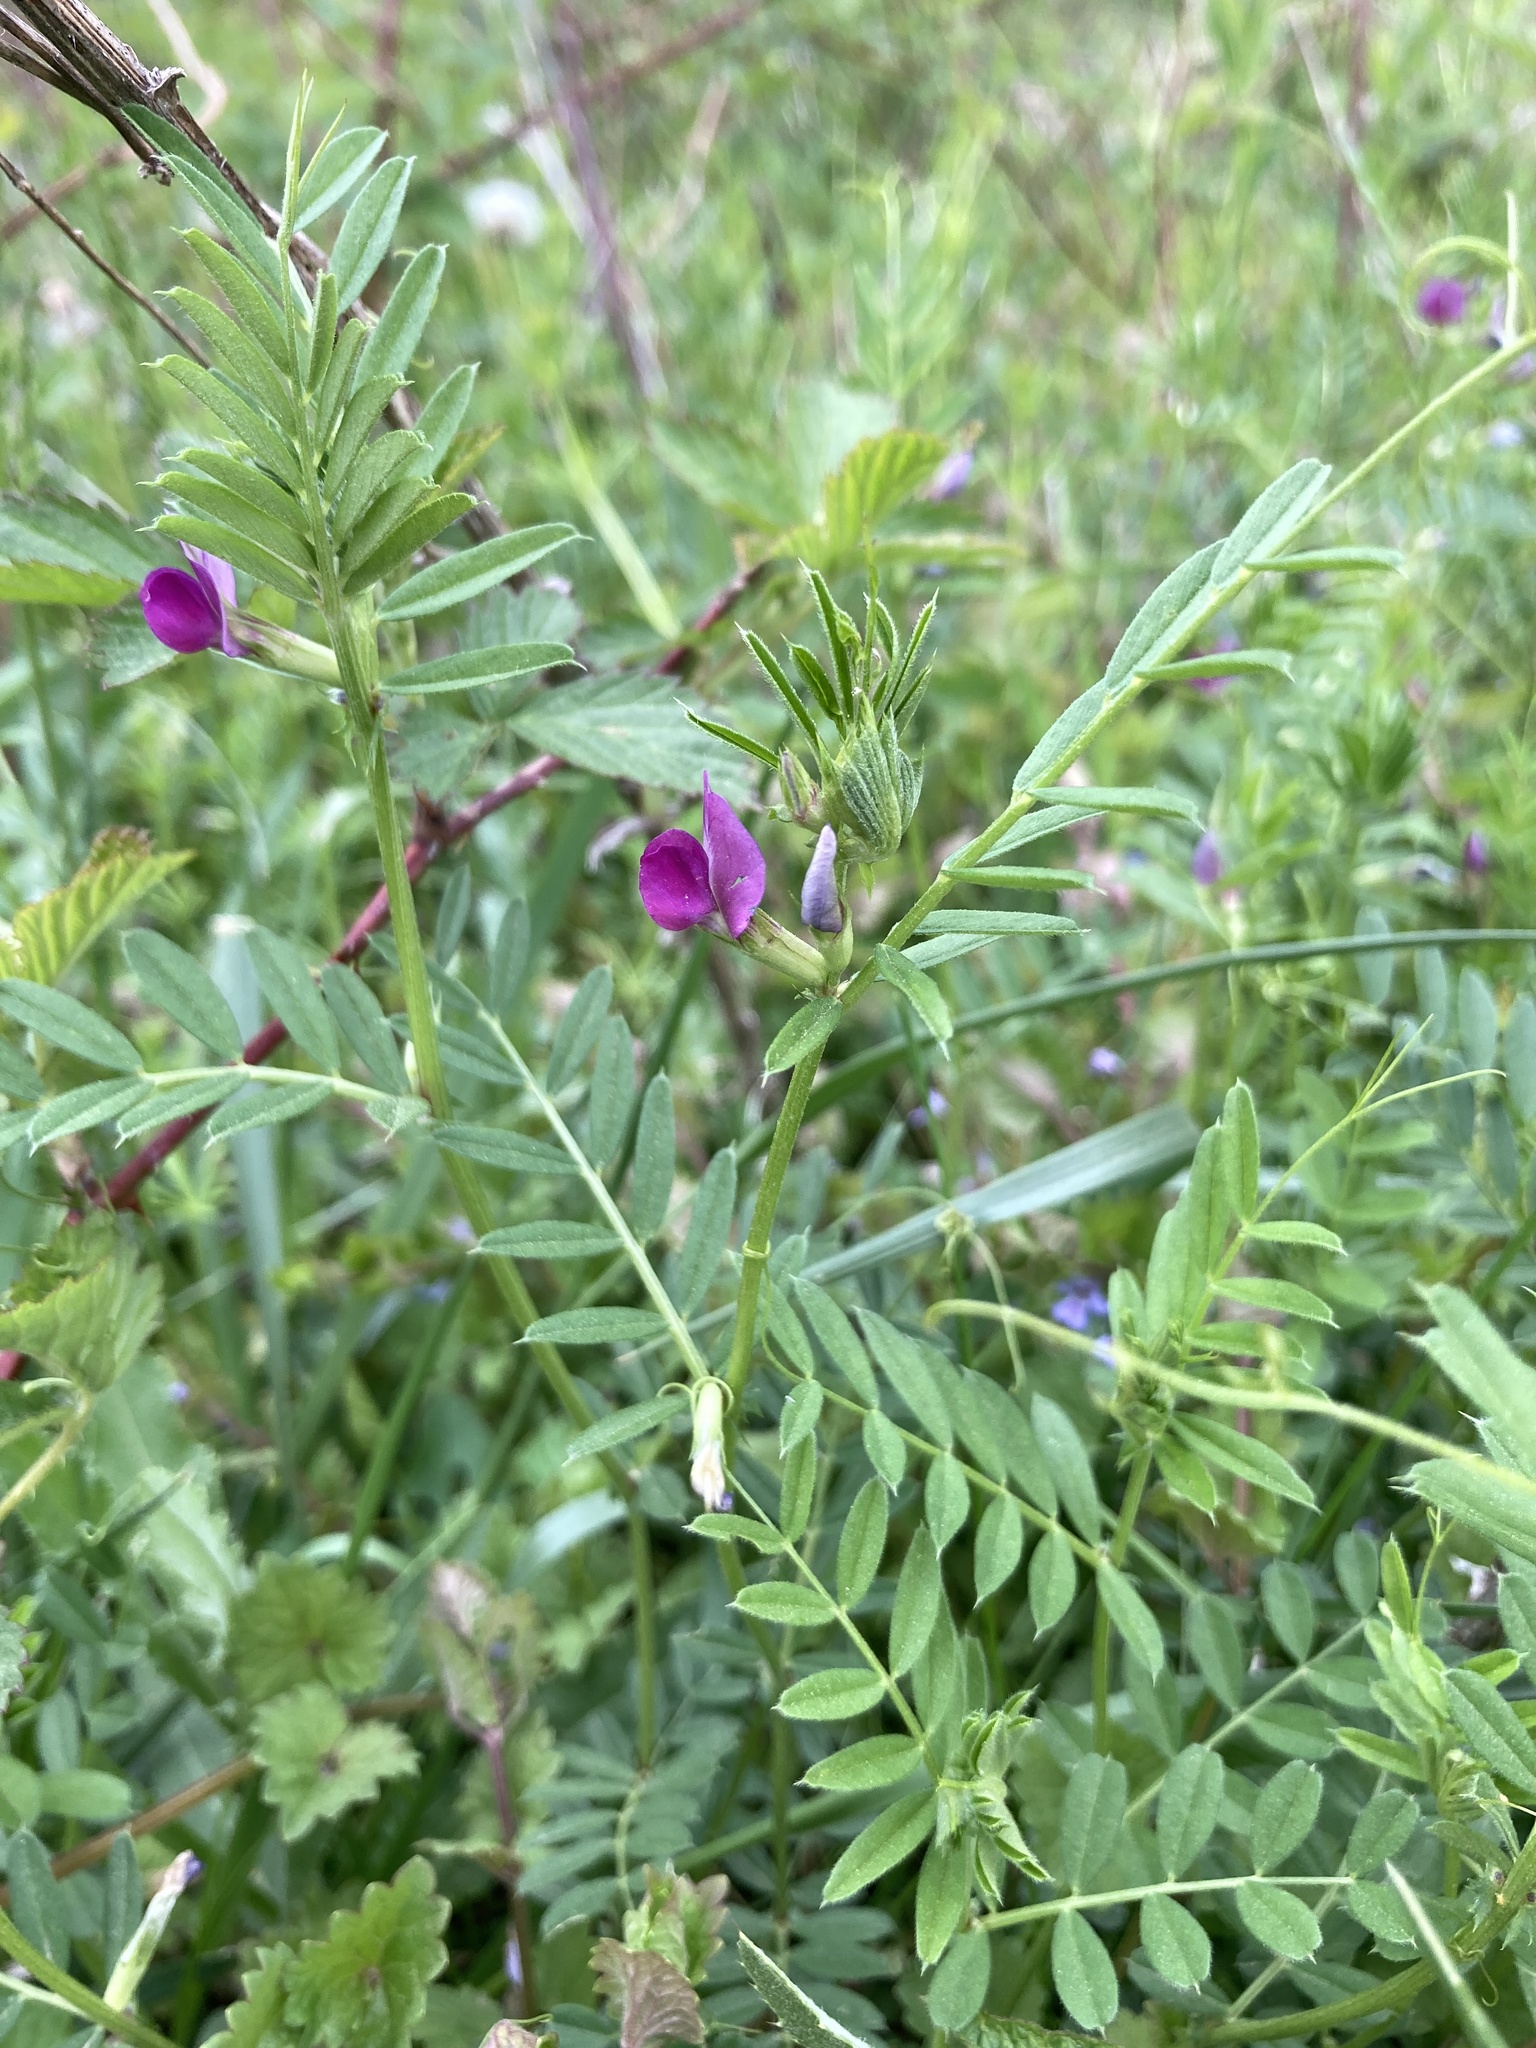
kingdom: Plantae
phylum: Tracheophyta
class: Magnoliopsida
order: Fabales
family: Fabaceae
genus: Vicia
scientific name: Vicia sativa
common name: Garden vetch
